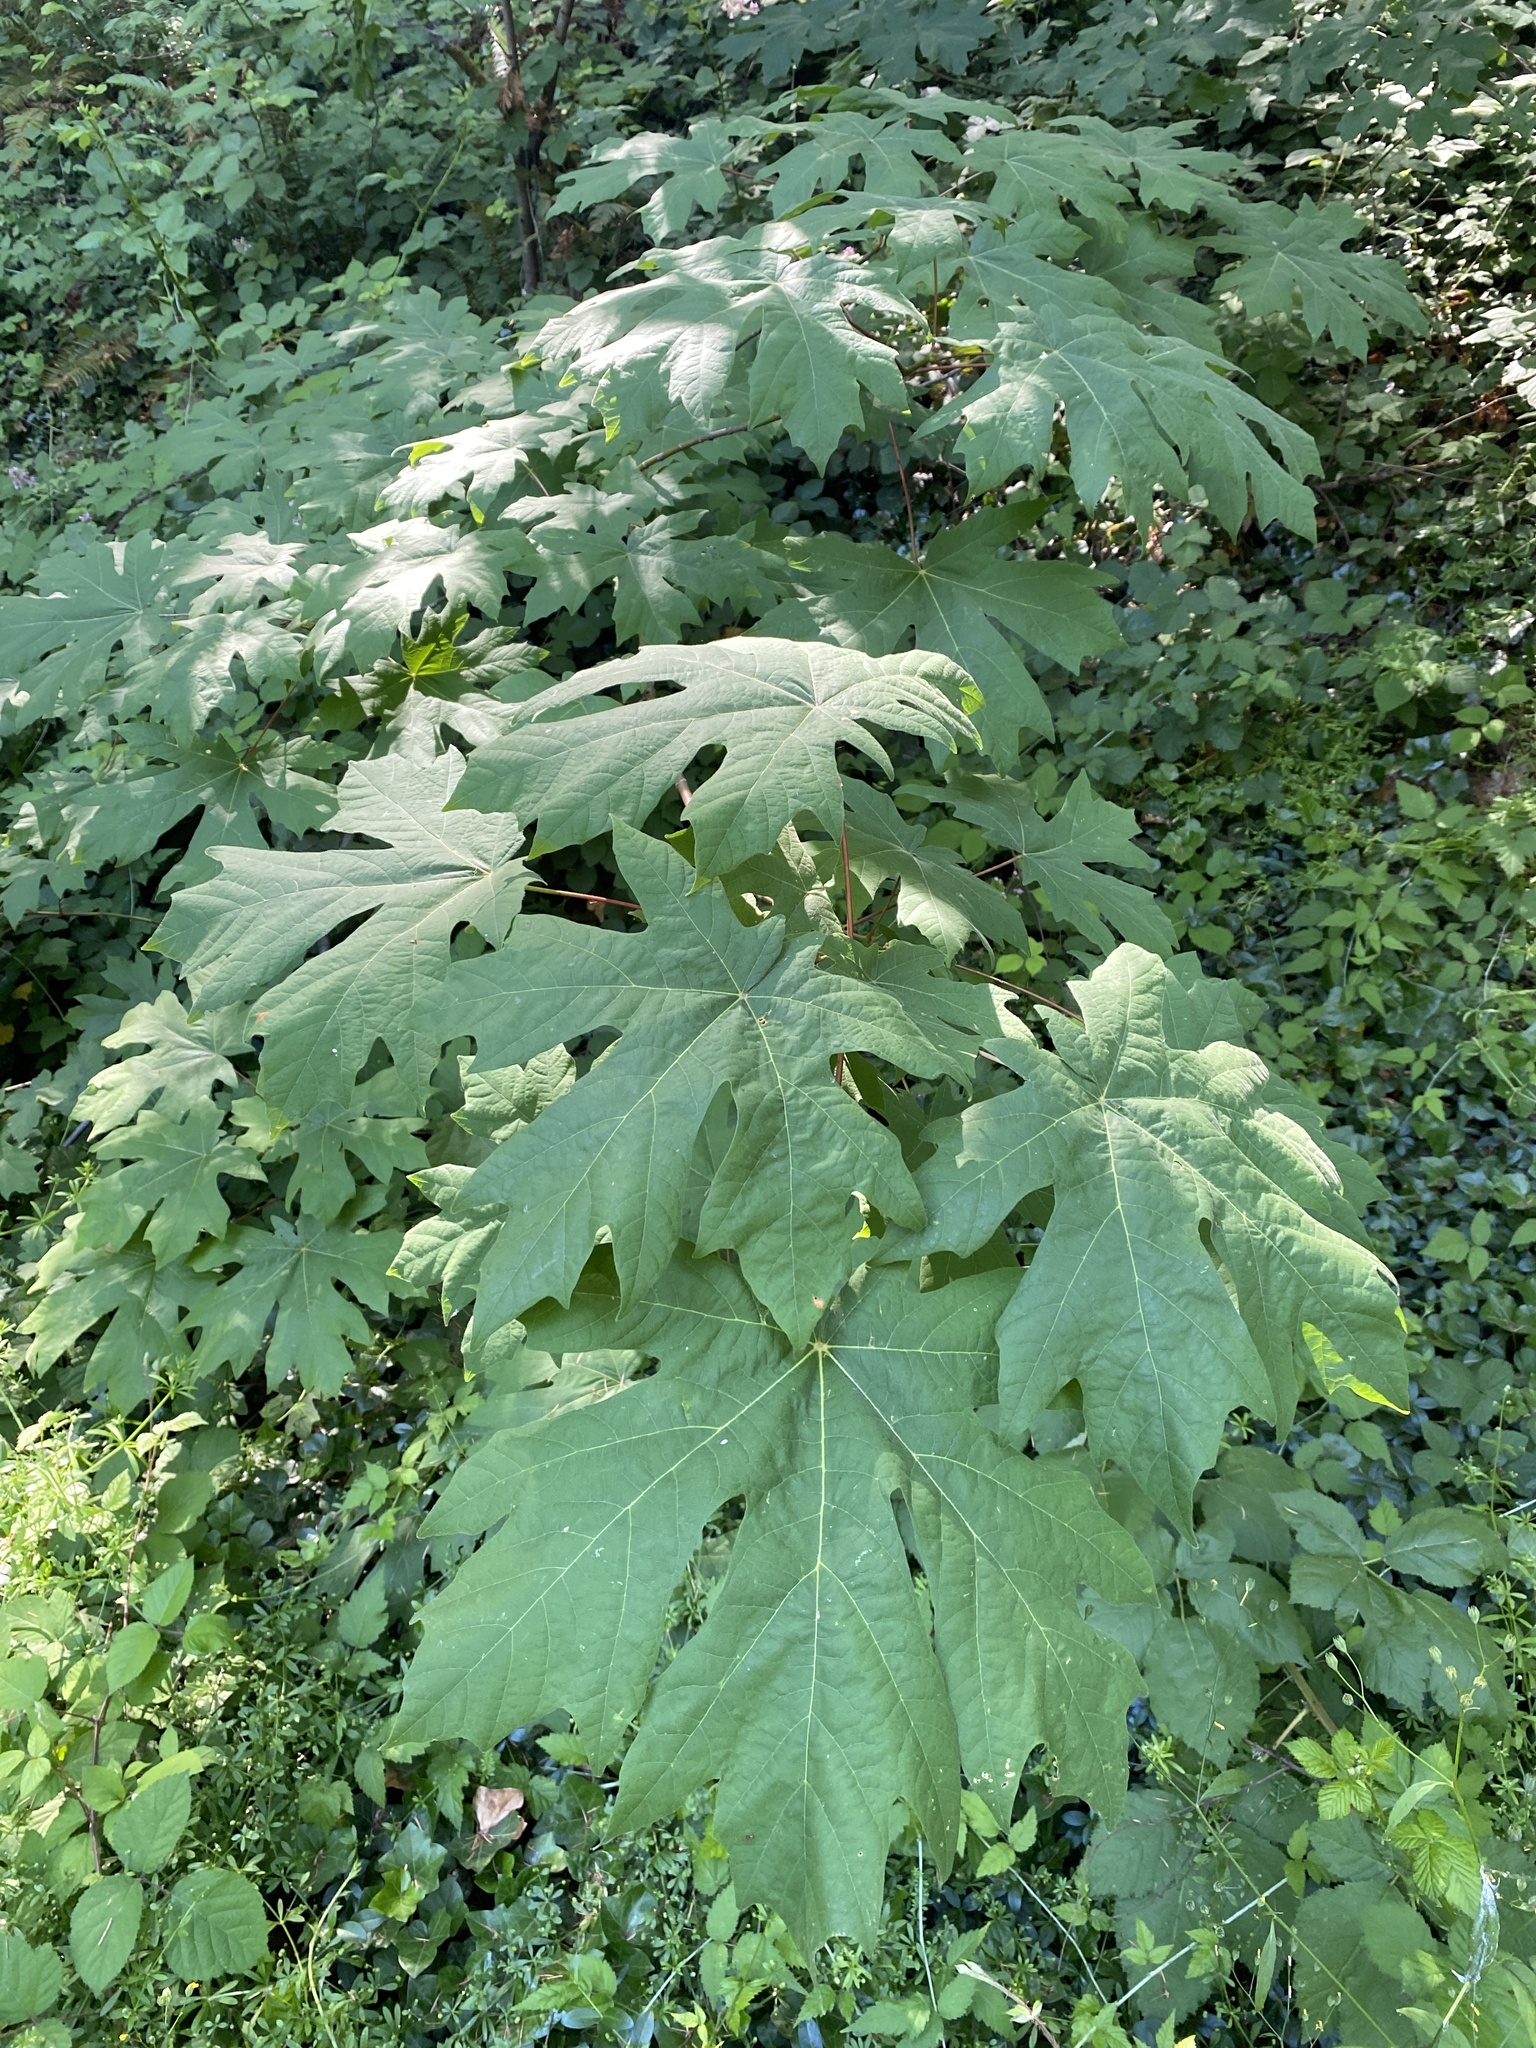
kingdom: Plantae
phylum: Tracheophyta
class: Magnoliopsida
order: Sapindales
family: Sapindaceae
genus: Acer
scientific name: Acer macrophyllum
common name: Oregon maple
